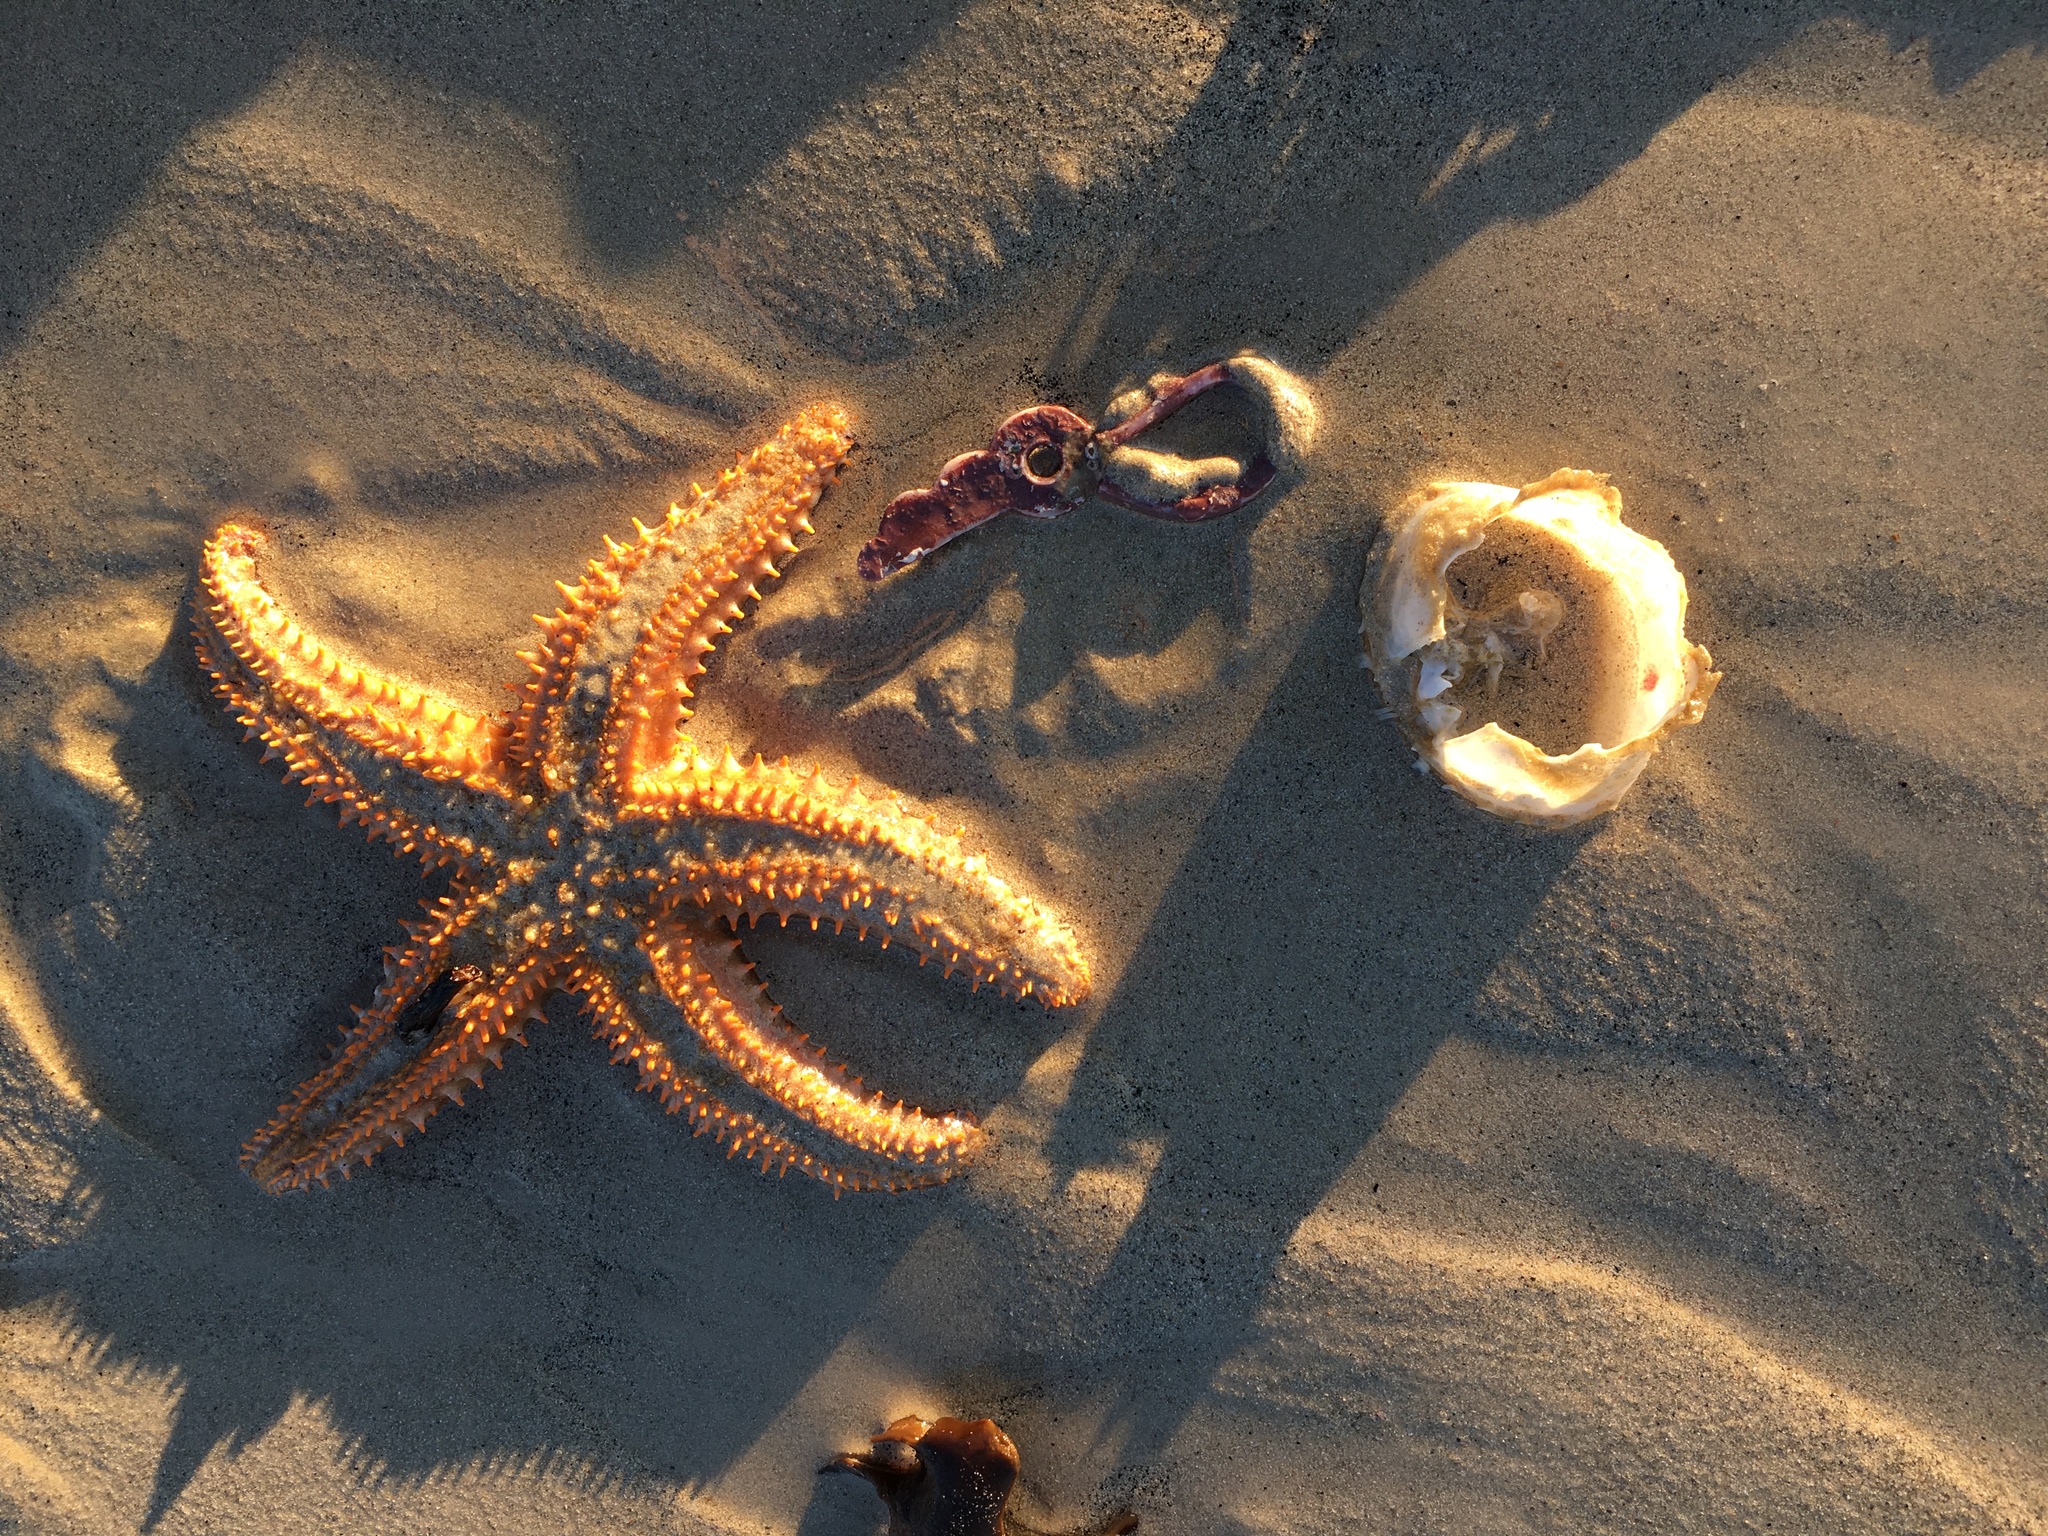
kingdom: Animalia
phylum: Echinodermata
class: Asteroidea
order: Forcipulatida
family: Asteriidae
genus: Marthasterias
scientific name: Marthasterias africana
